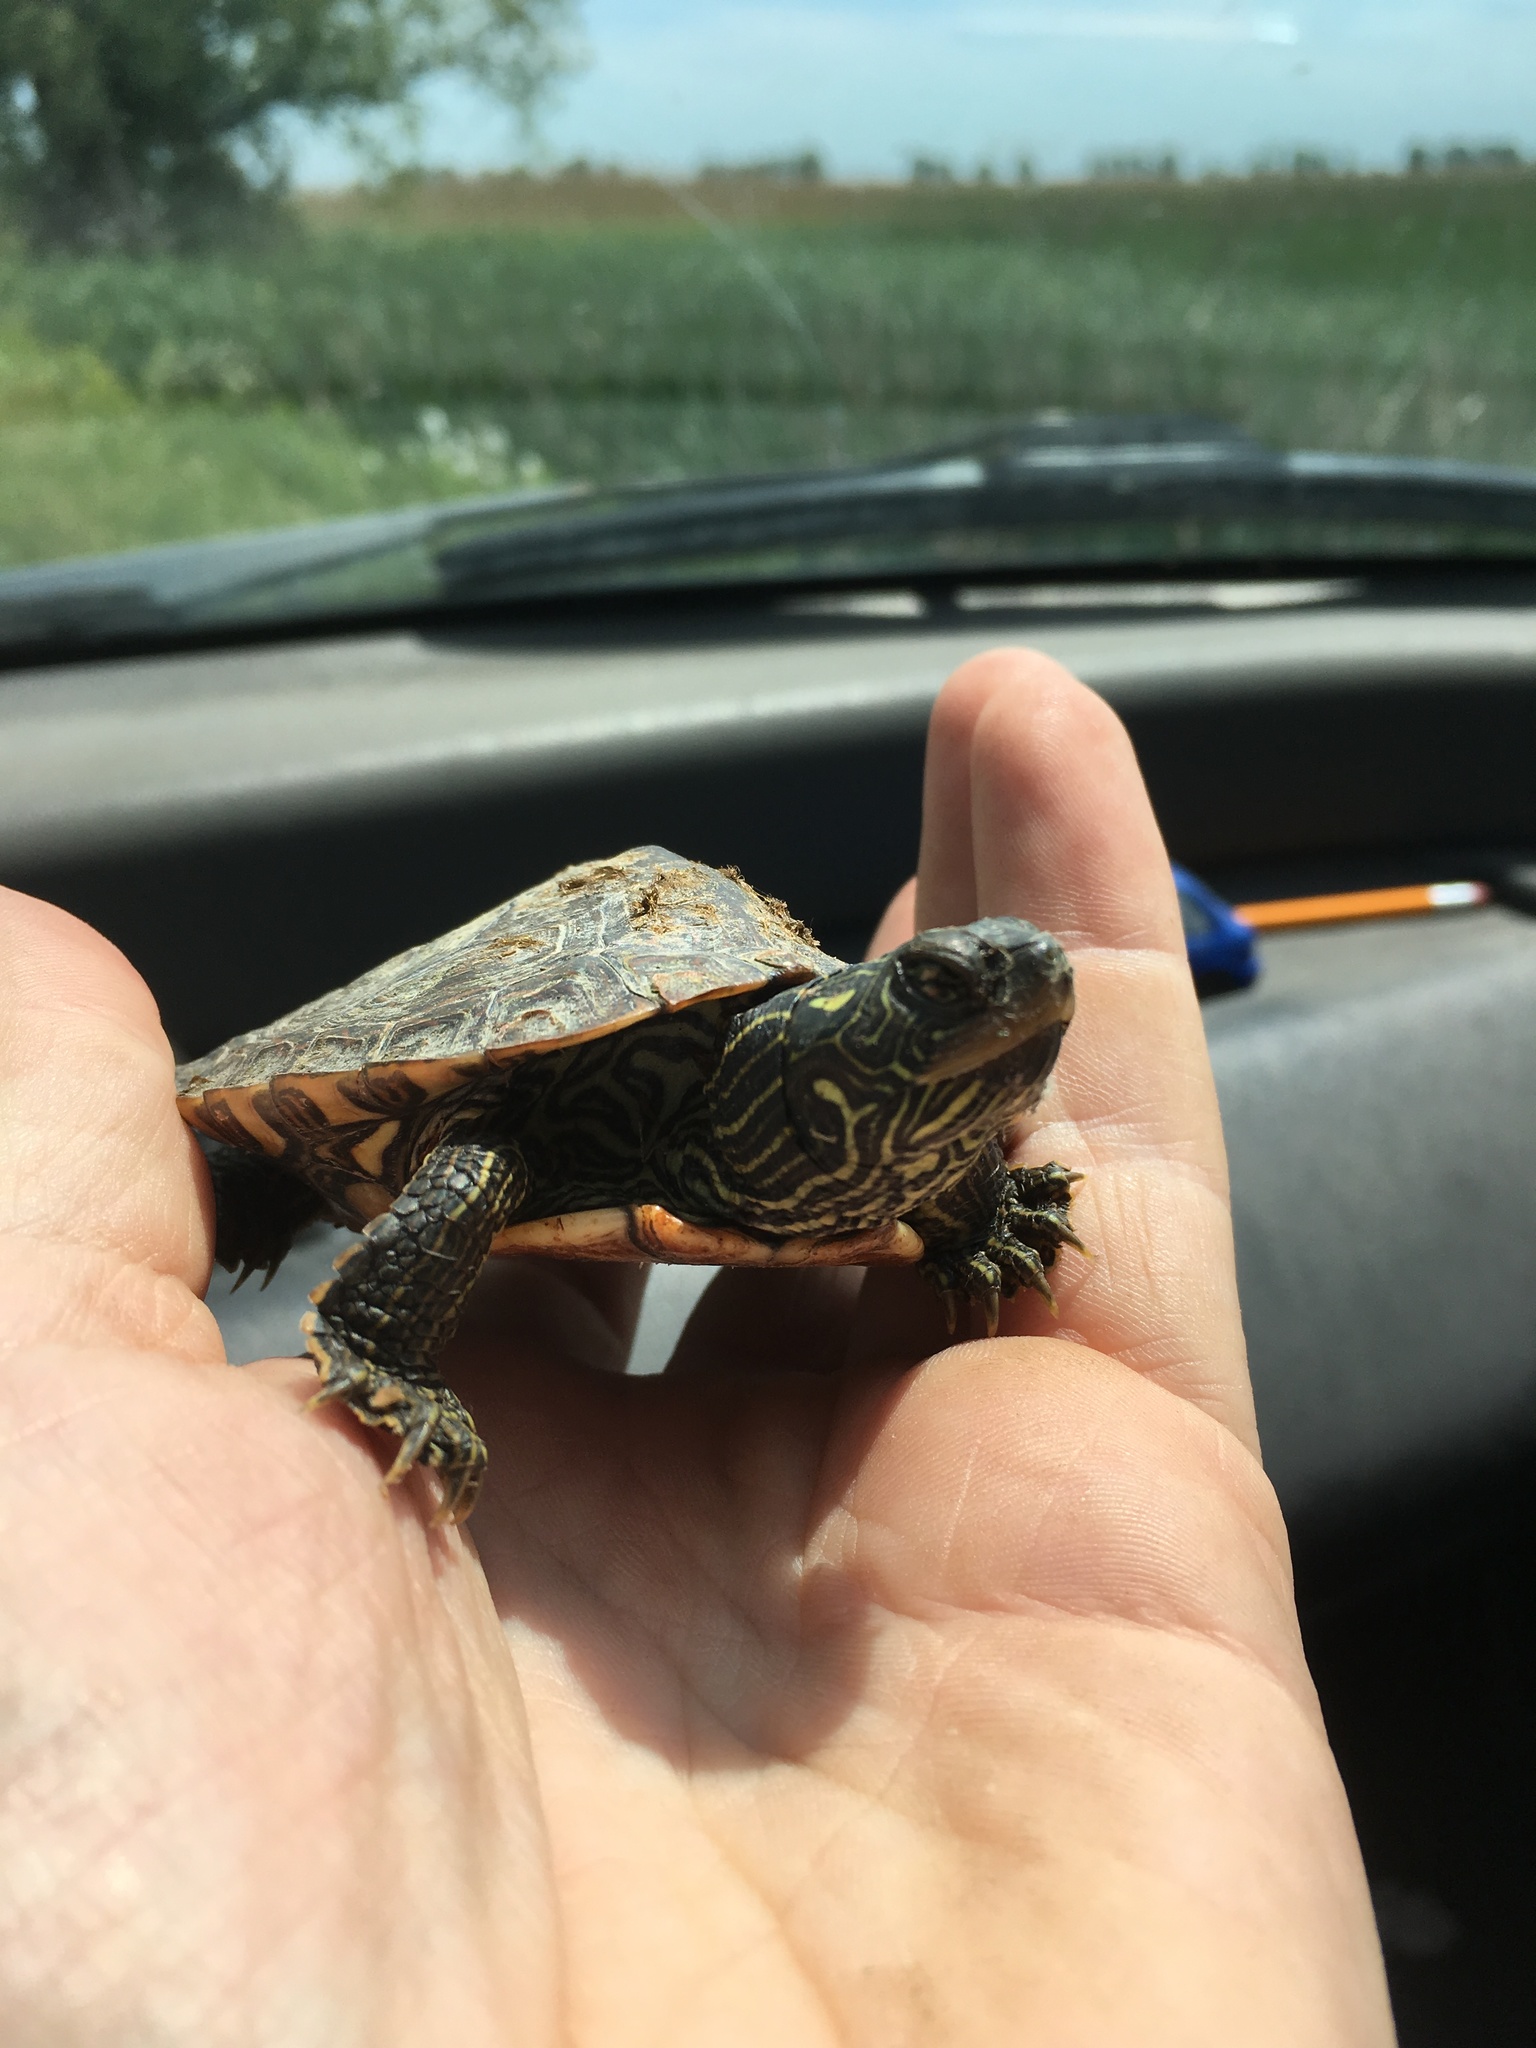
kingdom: Animalia
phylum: Chordata
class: Testudines
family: Emydidae
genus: Graptemys
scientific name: Graptemys geographica
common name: Common map turtle
